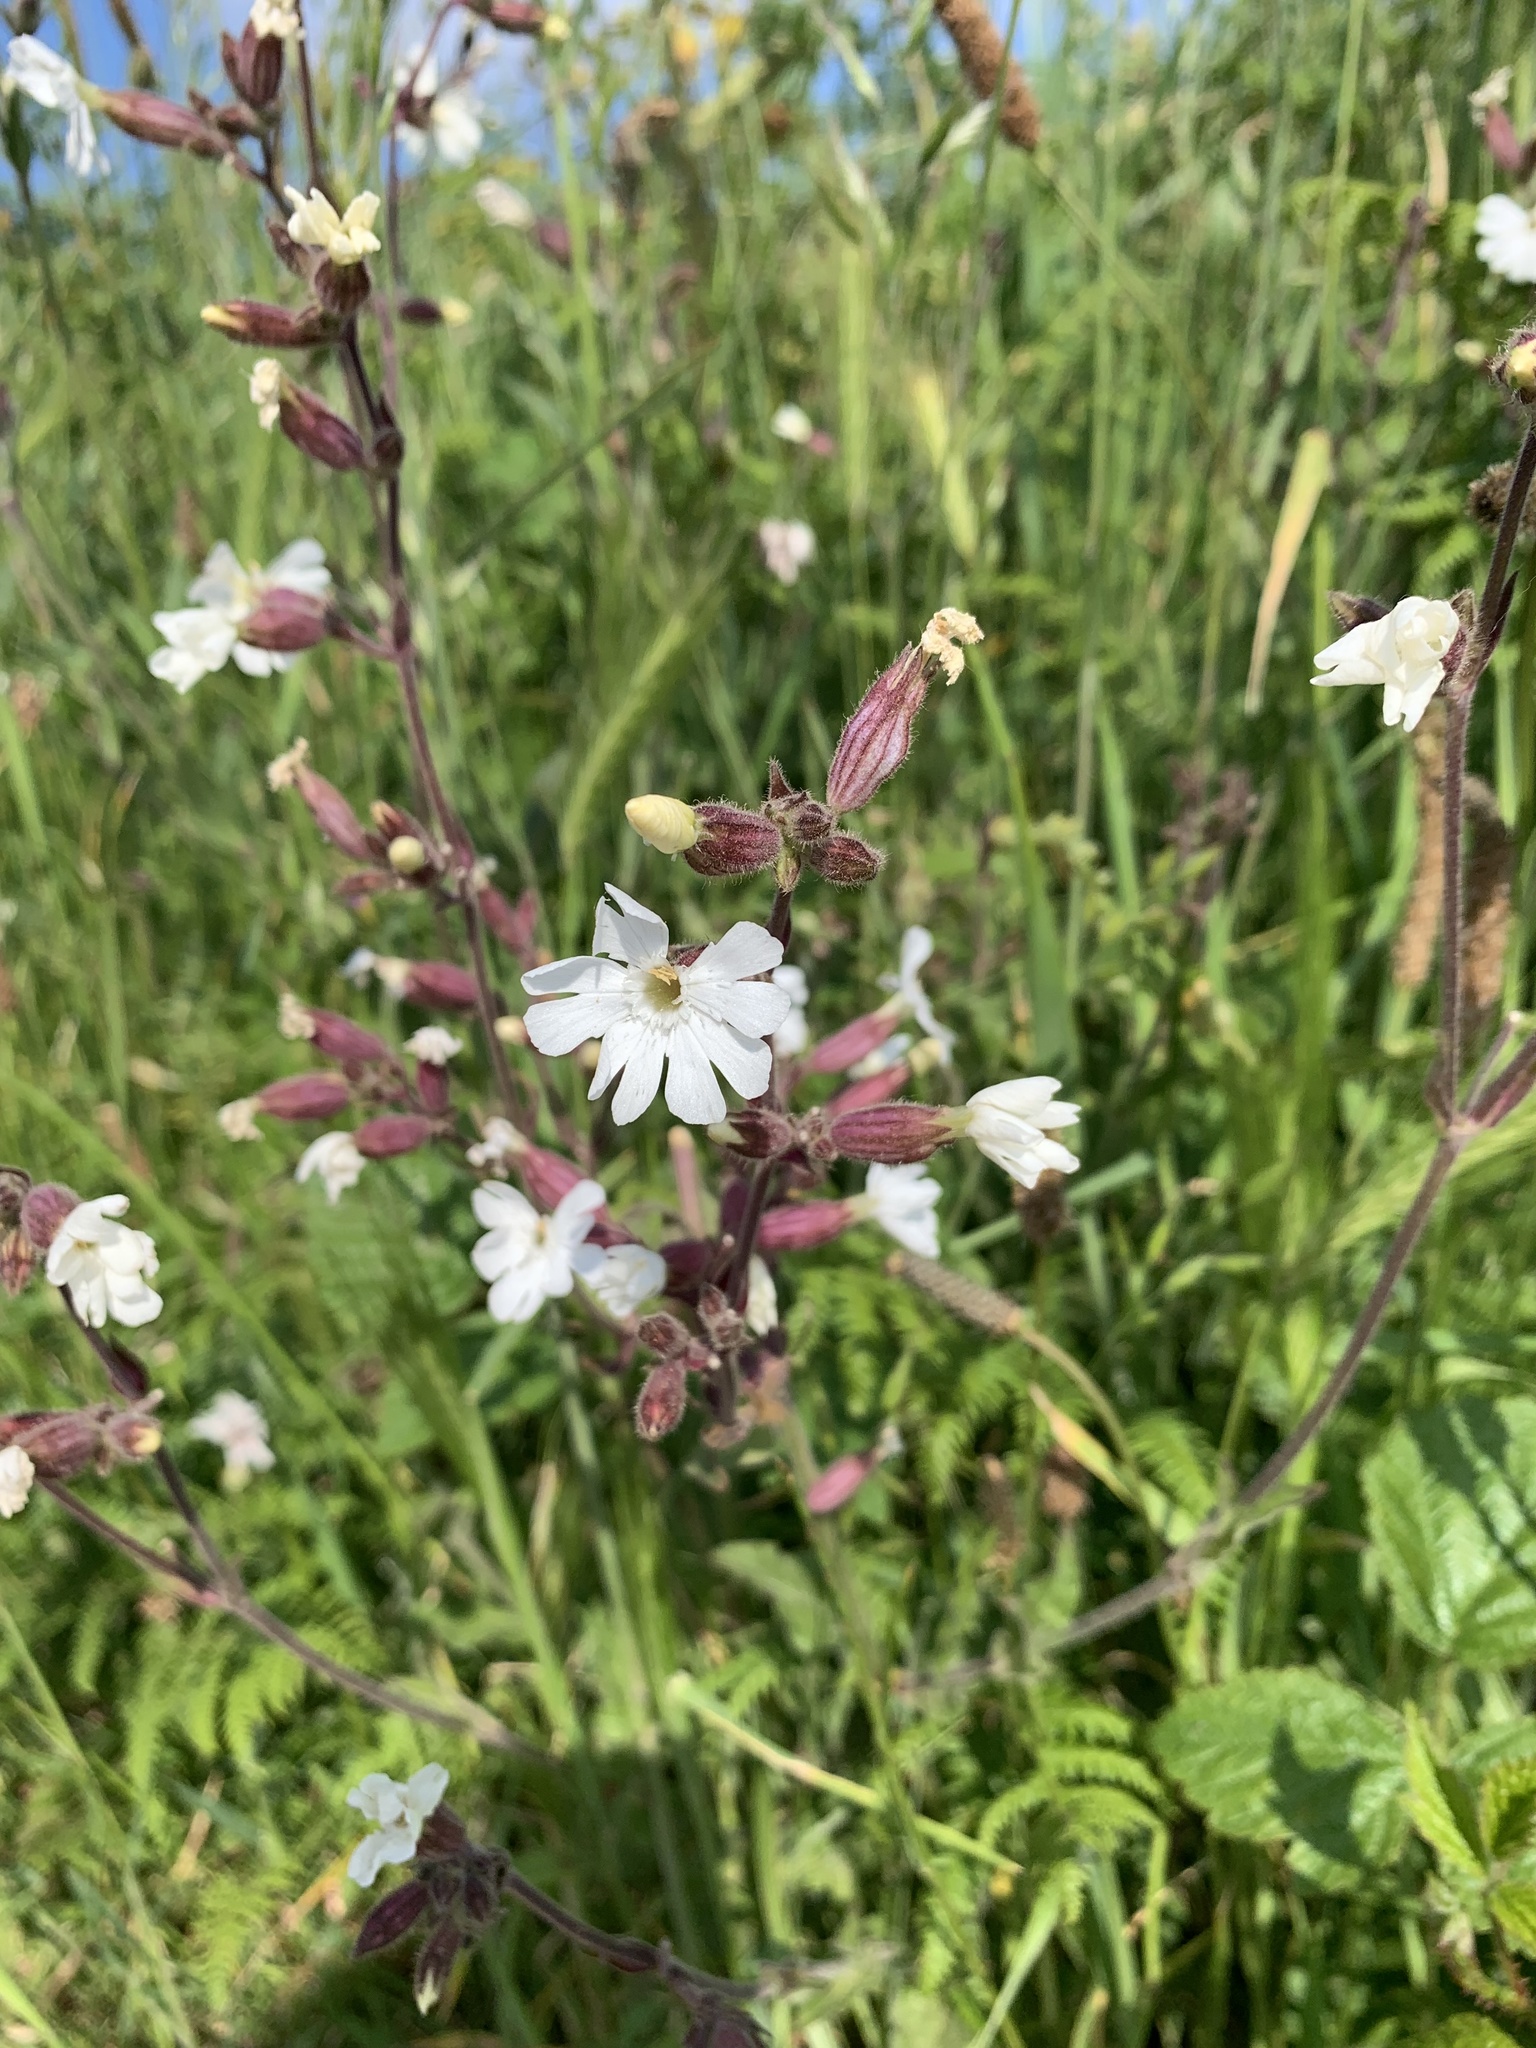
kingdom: Plantae
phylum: Tracheophyta
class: Magnoliopsida
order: Caryophyllales
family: Caryophyllaceae
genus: Silene
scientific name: Silene latifolia
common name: White campion
